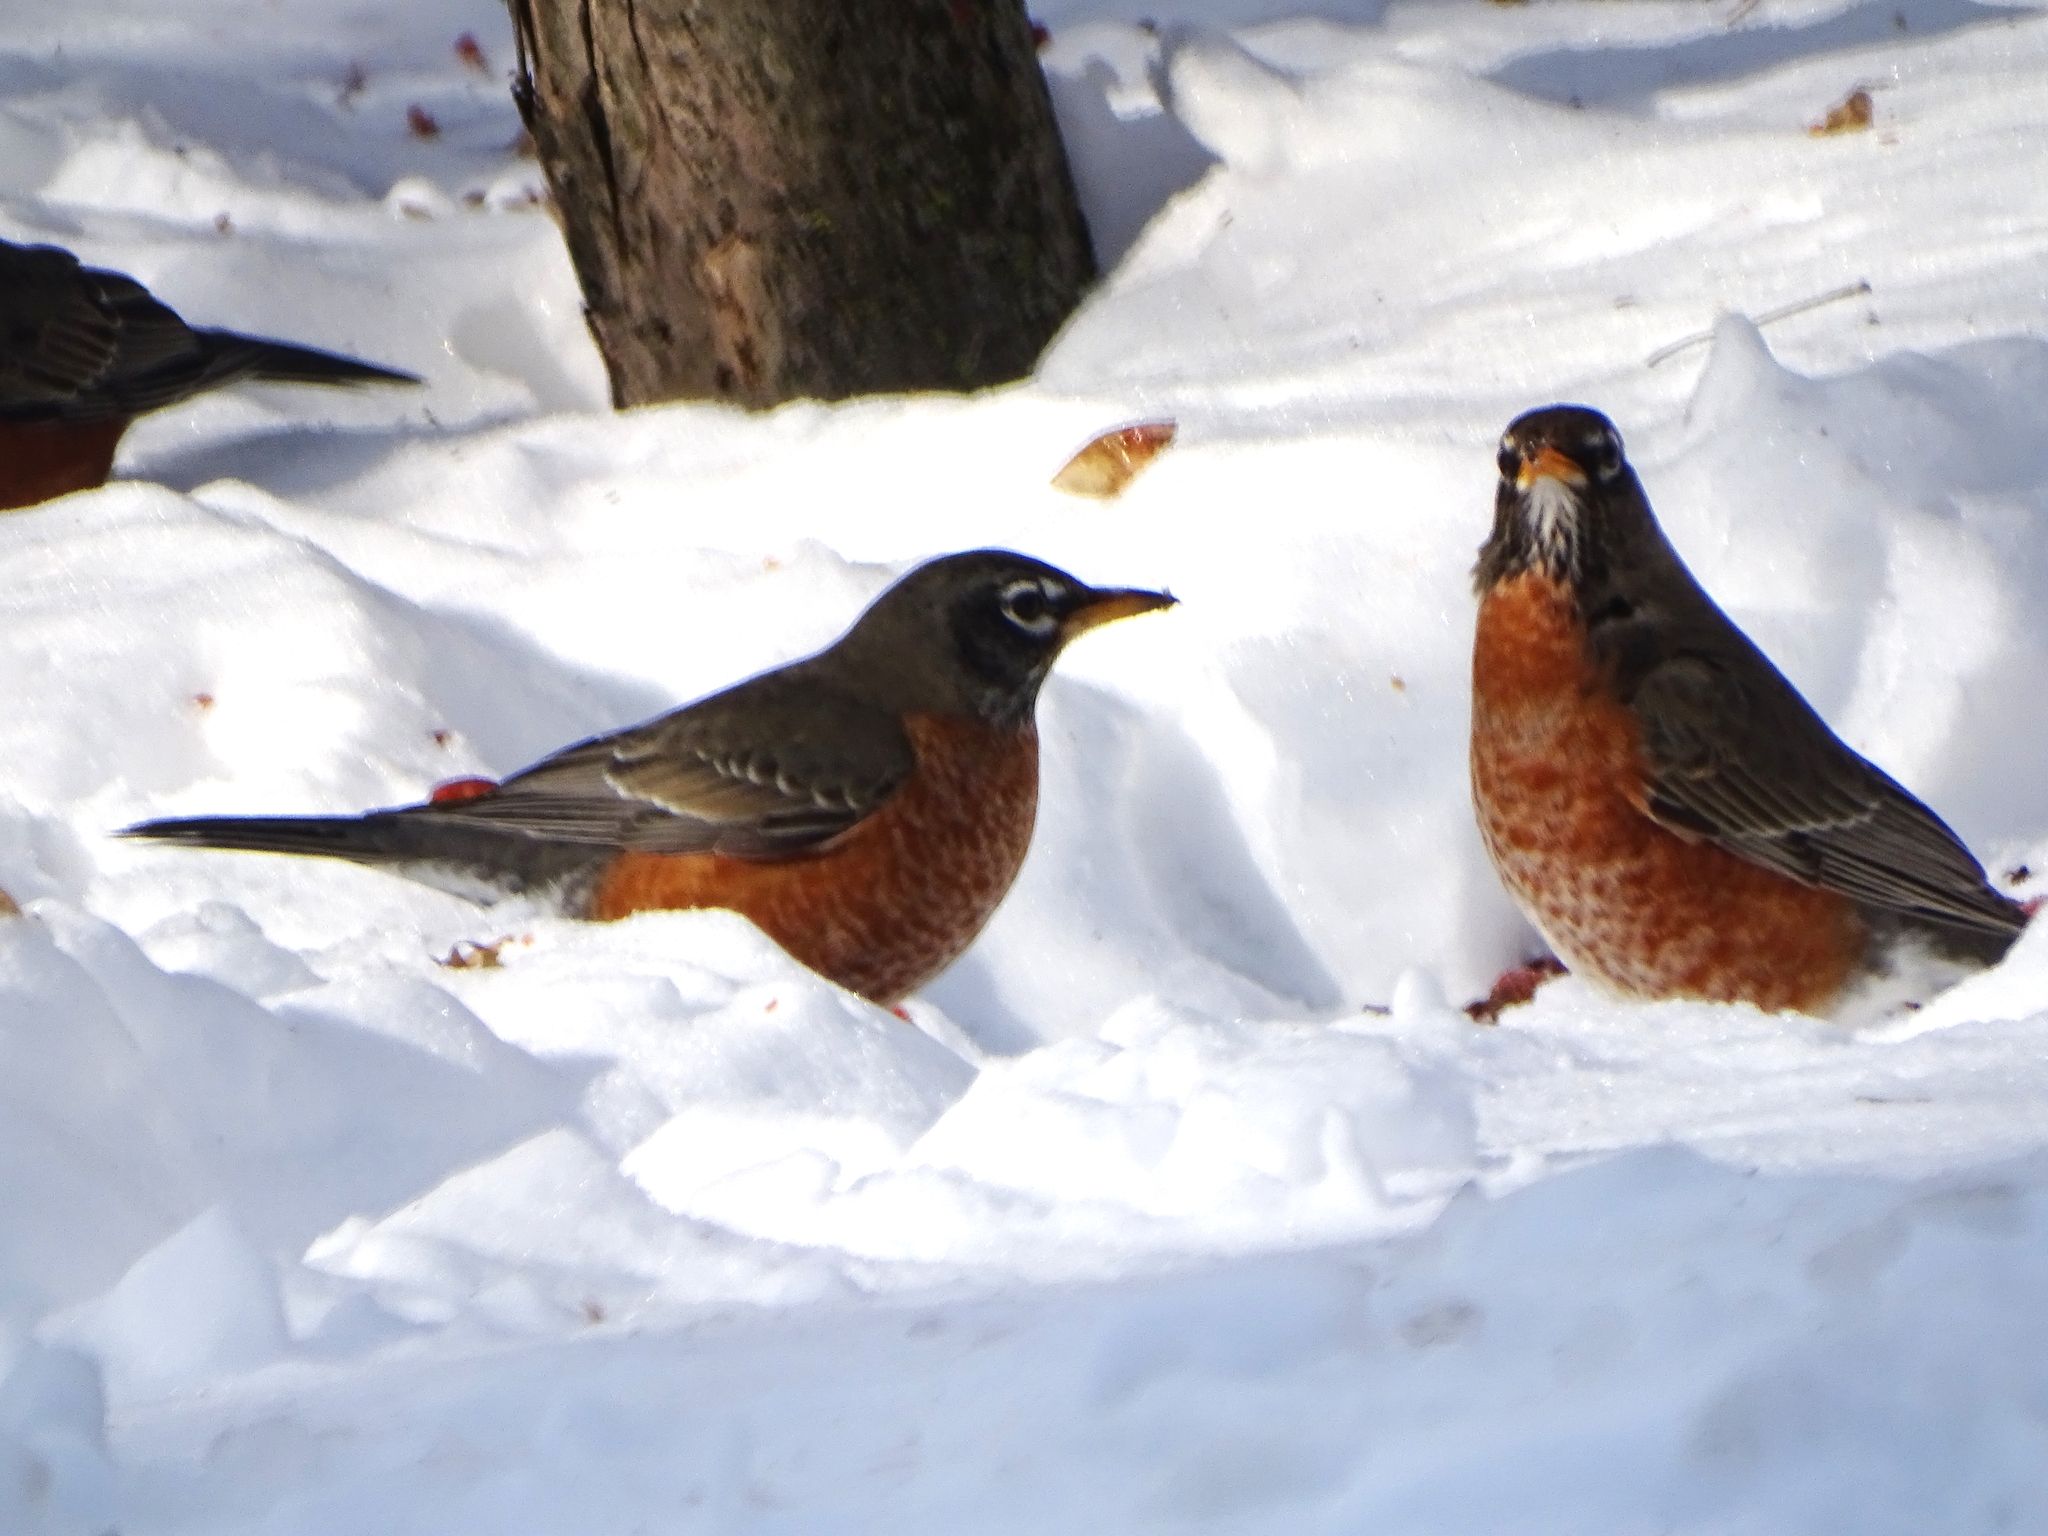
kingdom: Animalia
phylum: Chordata
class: Aves
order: Passeriformes
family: Turdidae
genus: Turdus
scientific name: Turdus migratorius
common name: American robin
